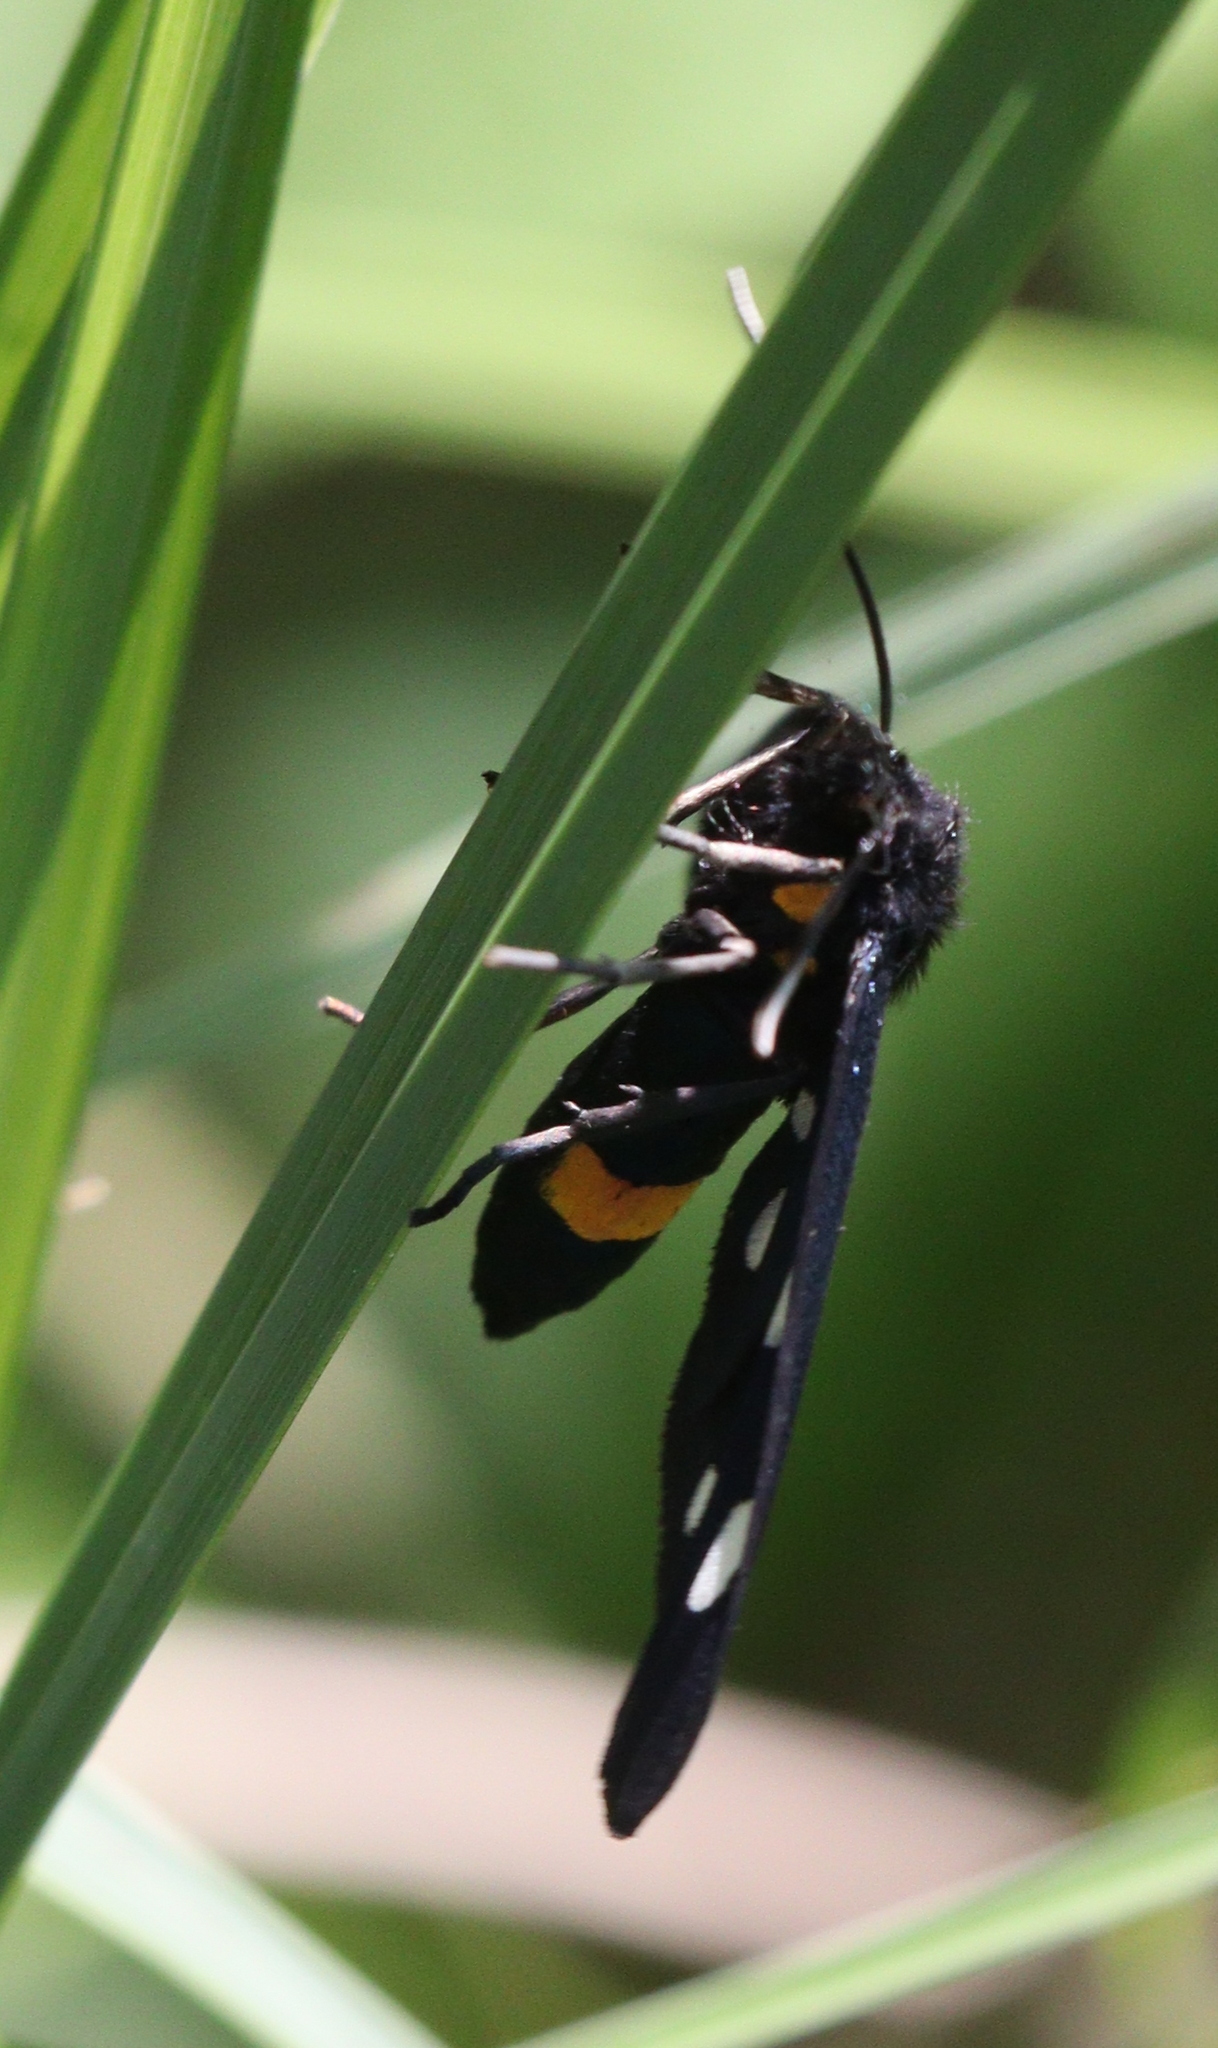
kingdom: Animalia
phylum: Arthropoda
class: Insecta
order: Lepidoptera
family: Erebidae
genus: Amata
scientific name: Amata phegea
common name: Nine-spotted
